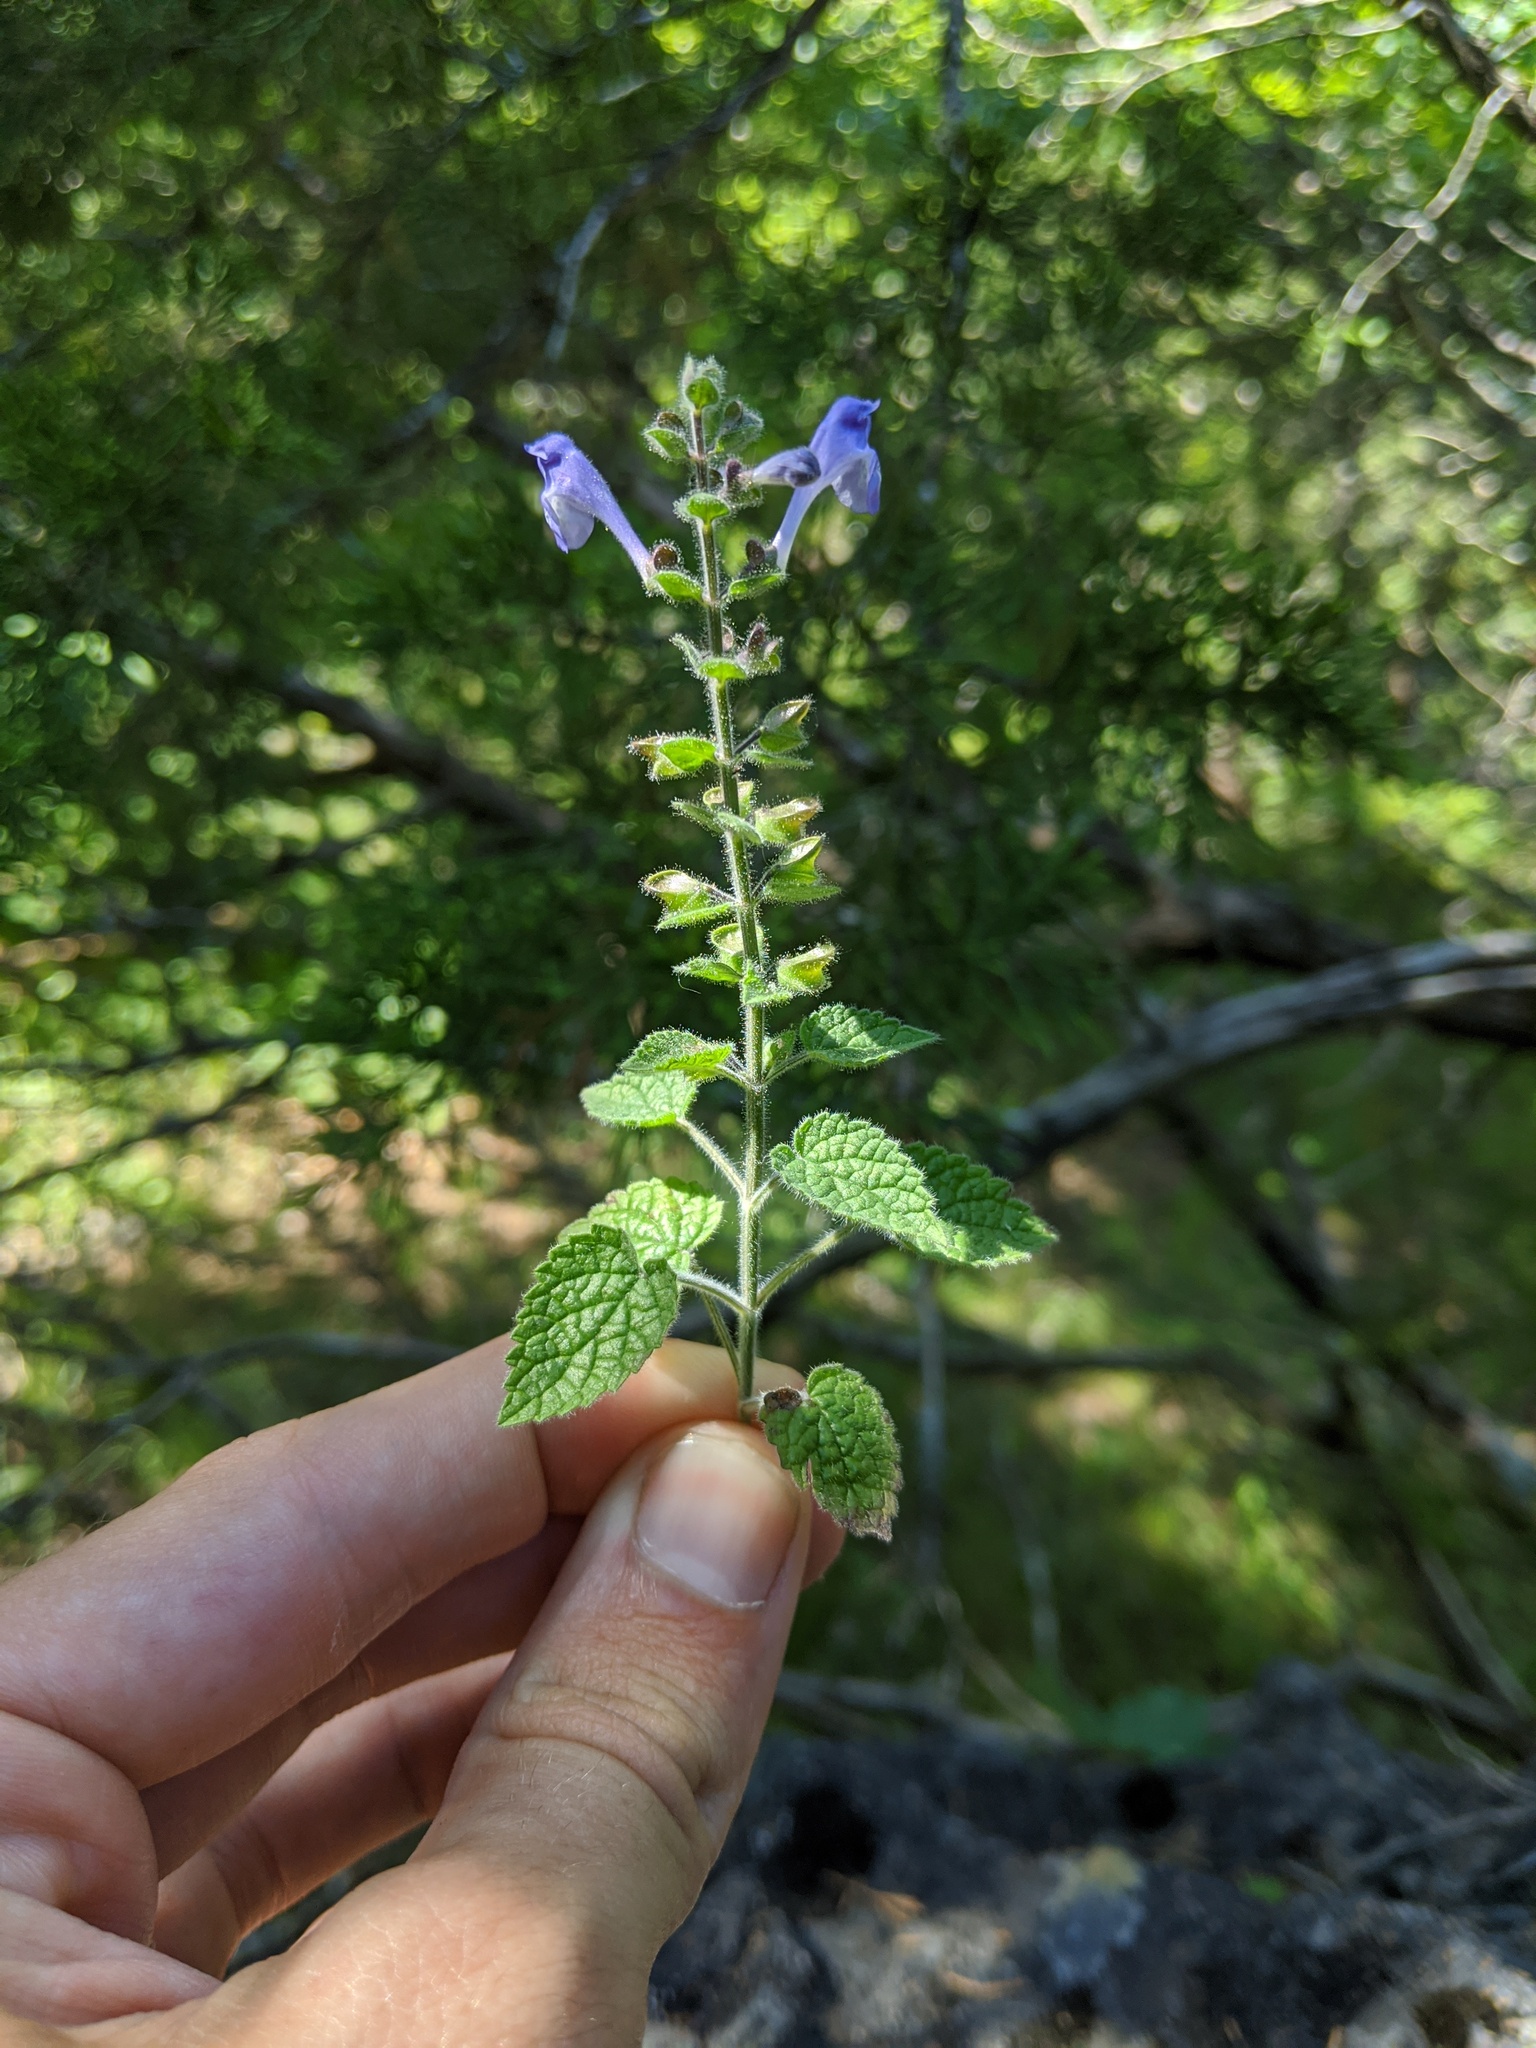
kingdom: Plantae
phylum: Tracheophyta
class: Magnoliopsida
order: Lamiales
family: Lamiaceae
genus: Scutellaria
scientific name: Scutellaria ovata
